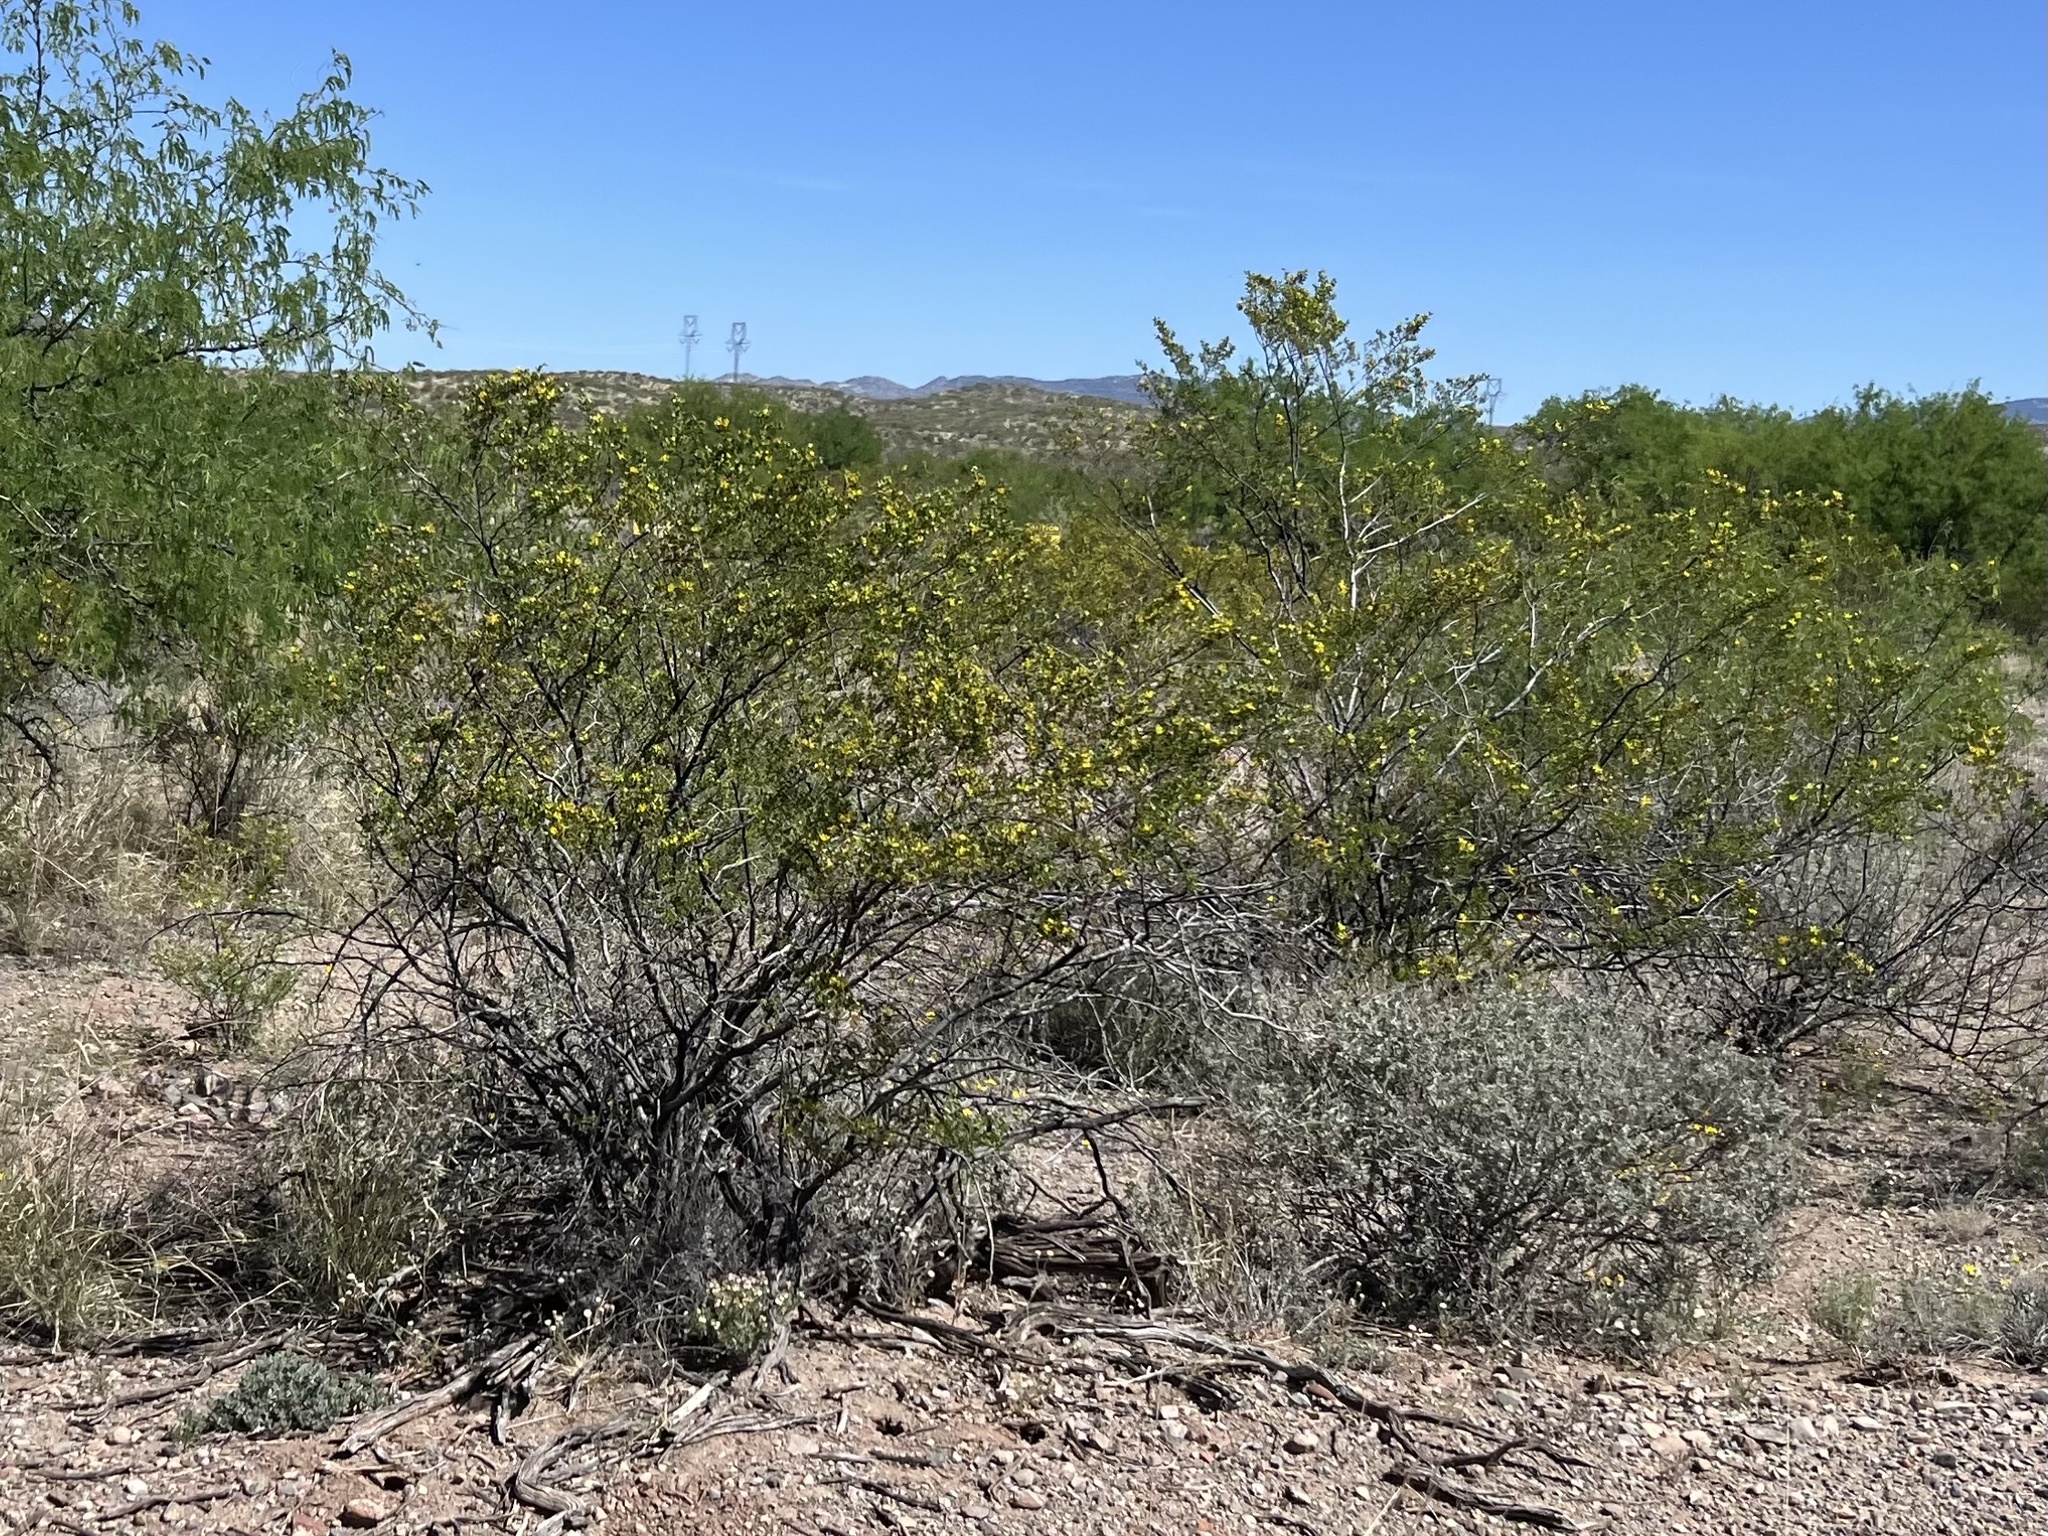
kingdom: Plantae
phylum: Tracheophyta
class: Magnoliopsida
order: Zygophyllales
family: Zygophyllaceae
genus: Larrea
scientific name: Larrea tridentata
